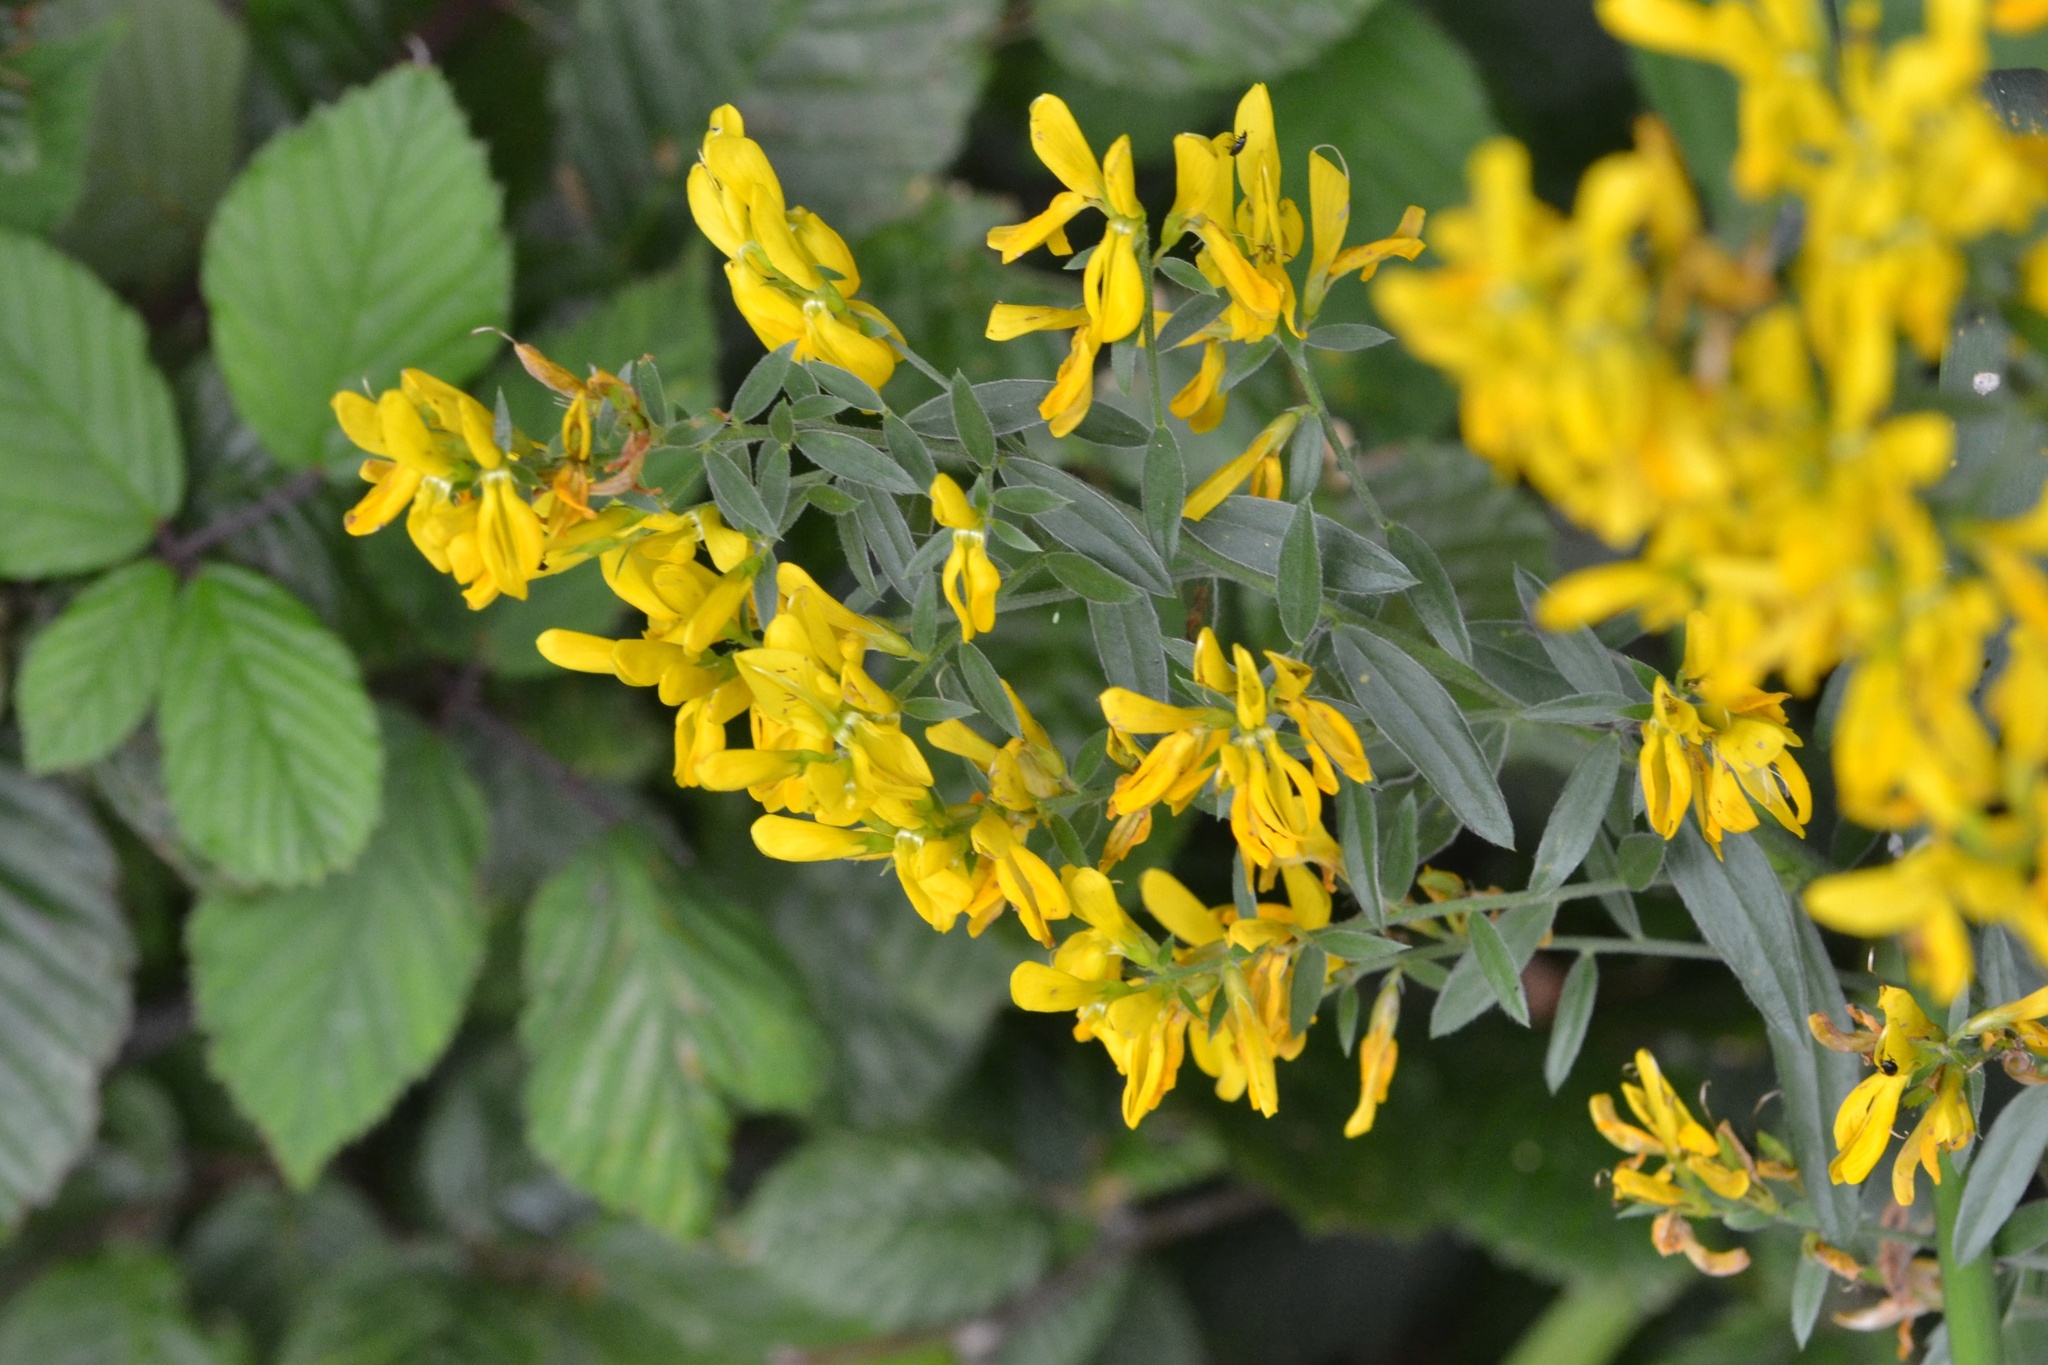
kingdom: Plantae
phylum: Tracheophyta
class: Magnoliopsida
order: Fabales
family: Fabaceae
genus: Genista
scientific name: Genista tinctoria
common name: Dyer's greenweed
